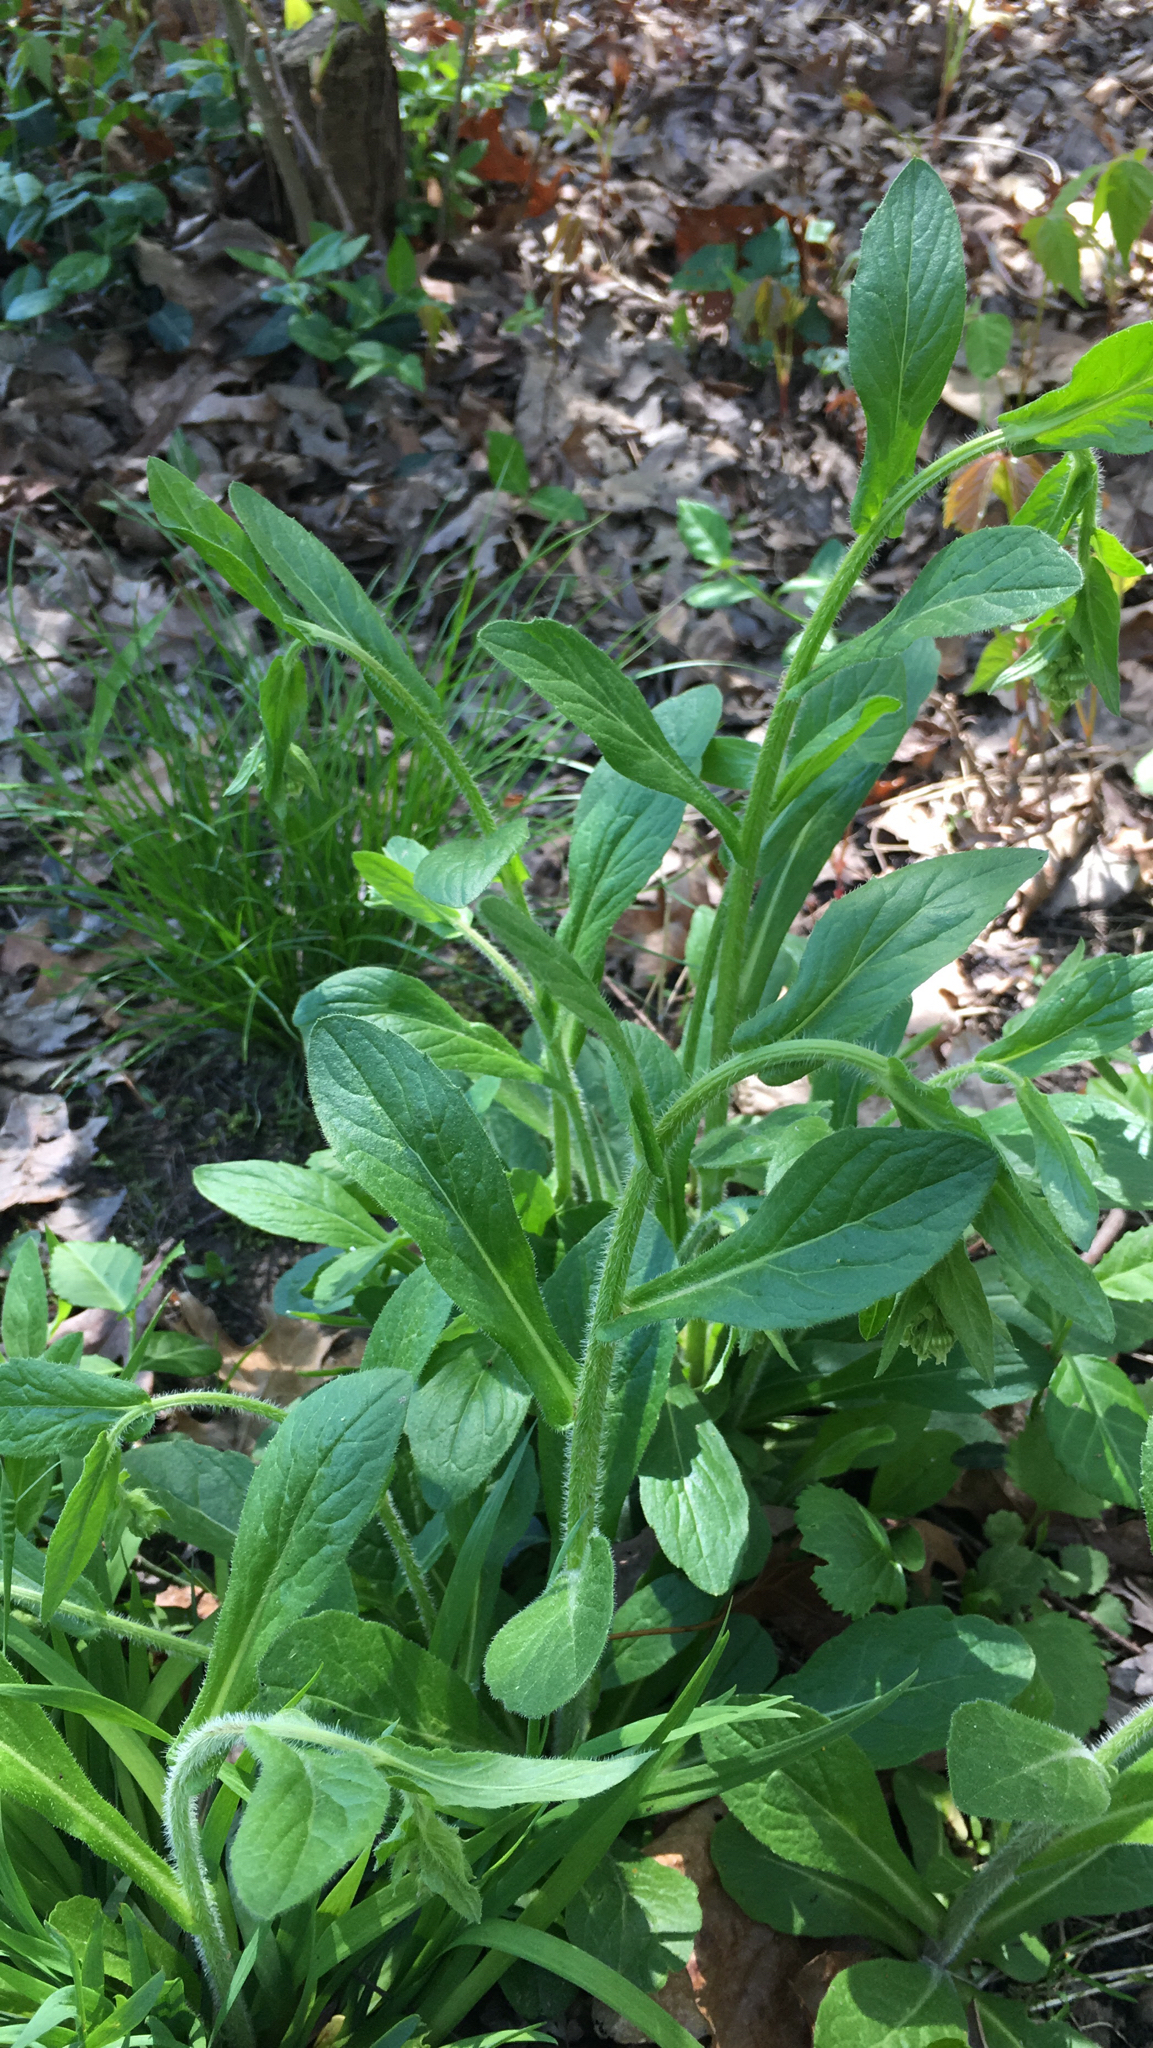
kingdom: Plantae
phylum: Tracheophyta
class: Magnoliopsida
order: Asterales
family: Asteraceae
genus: Erigeron
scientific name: Erigeron philadelphicus
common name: Robin's-plantain
